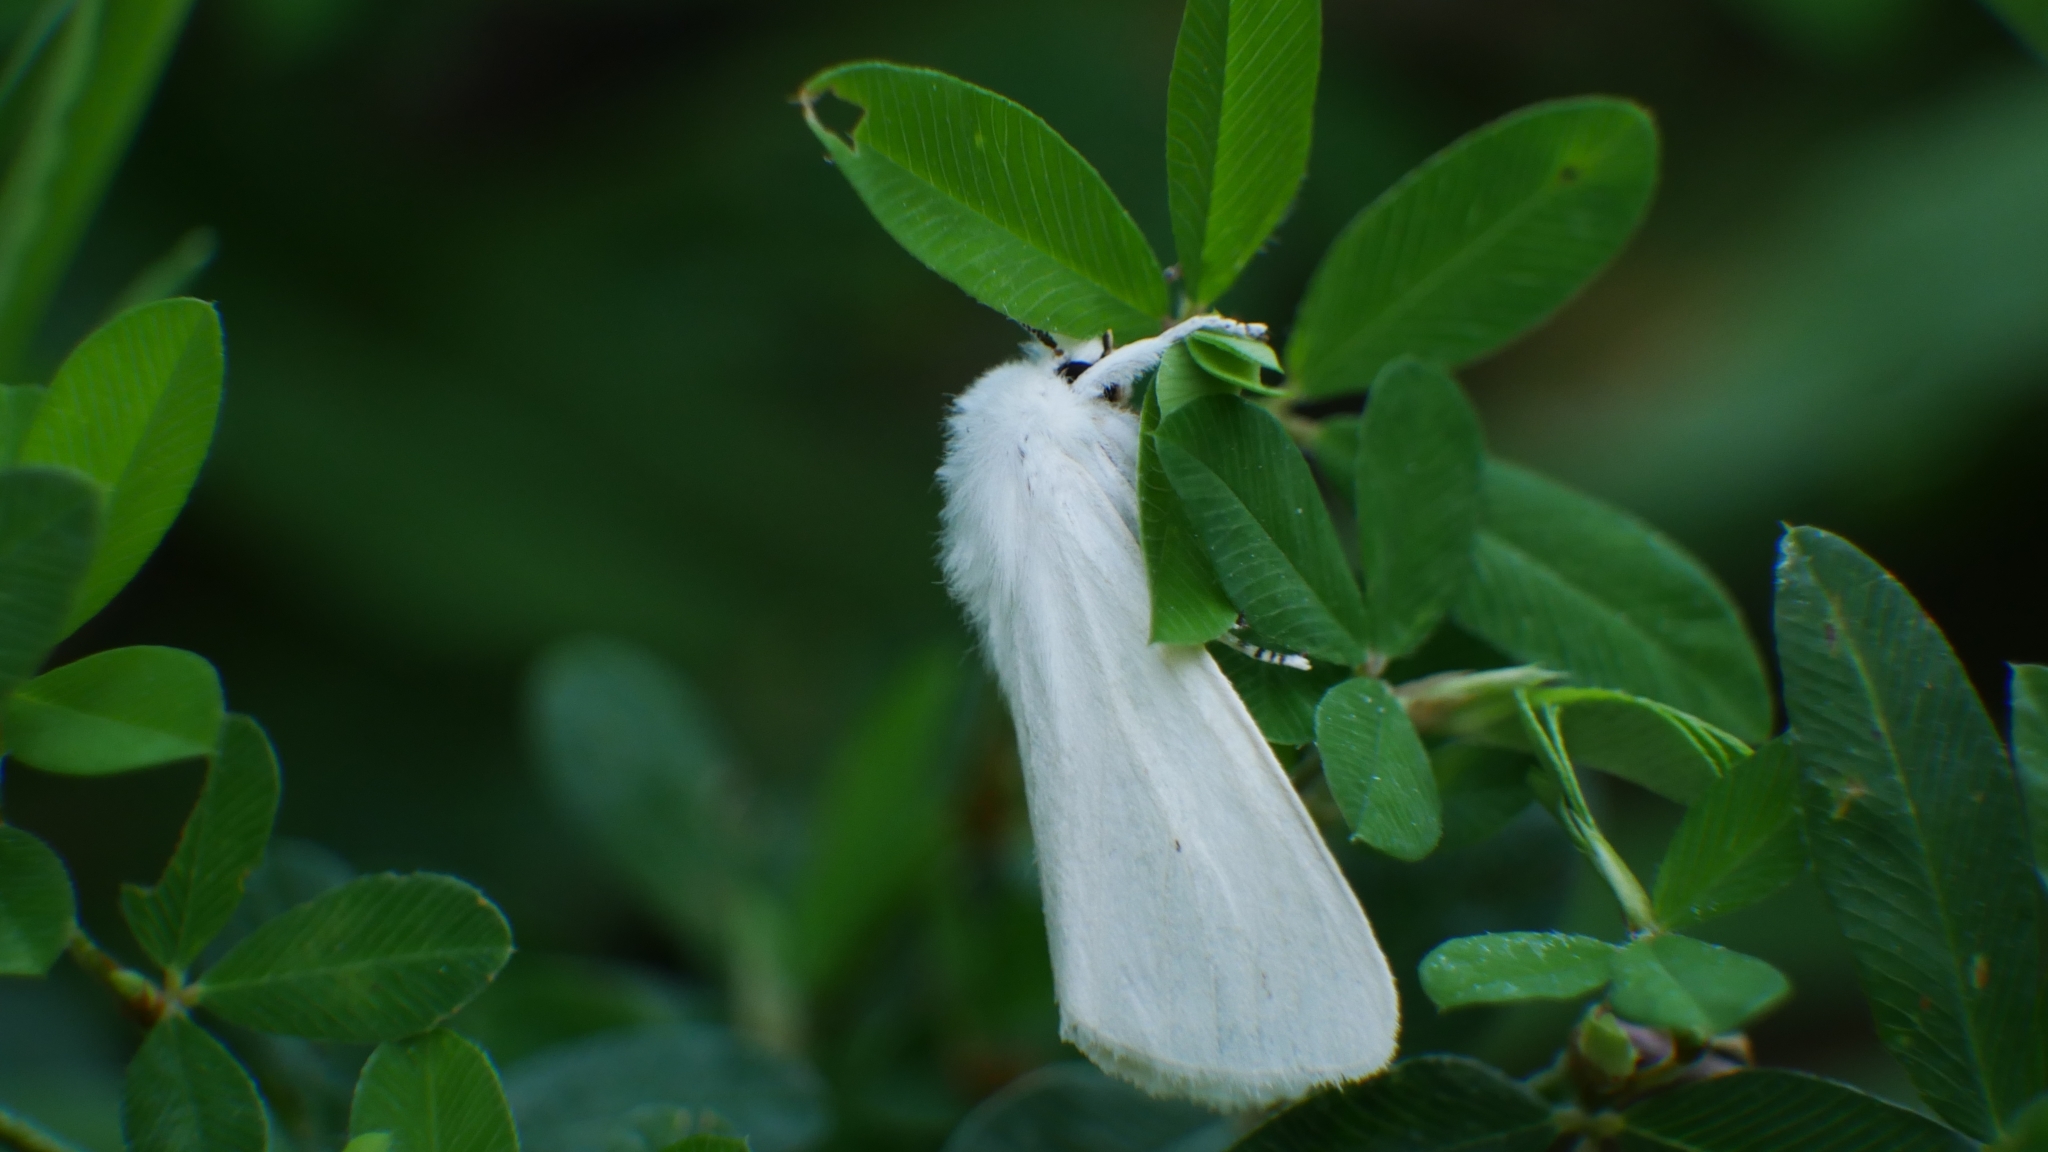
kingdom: Animalia
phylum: Arthropoda
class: Insecta
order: Lepidoptera
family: Erebidae
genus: Spilosoma
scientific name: Spilosoma virginica
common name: Virginia tiger moth
